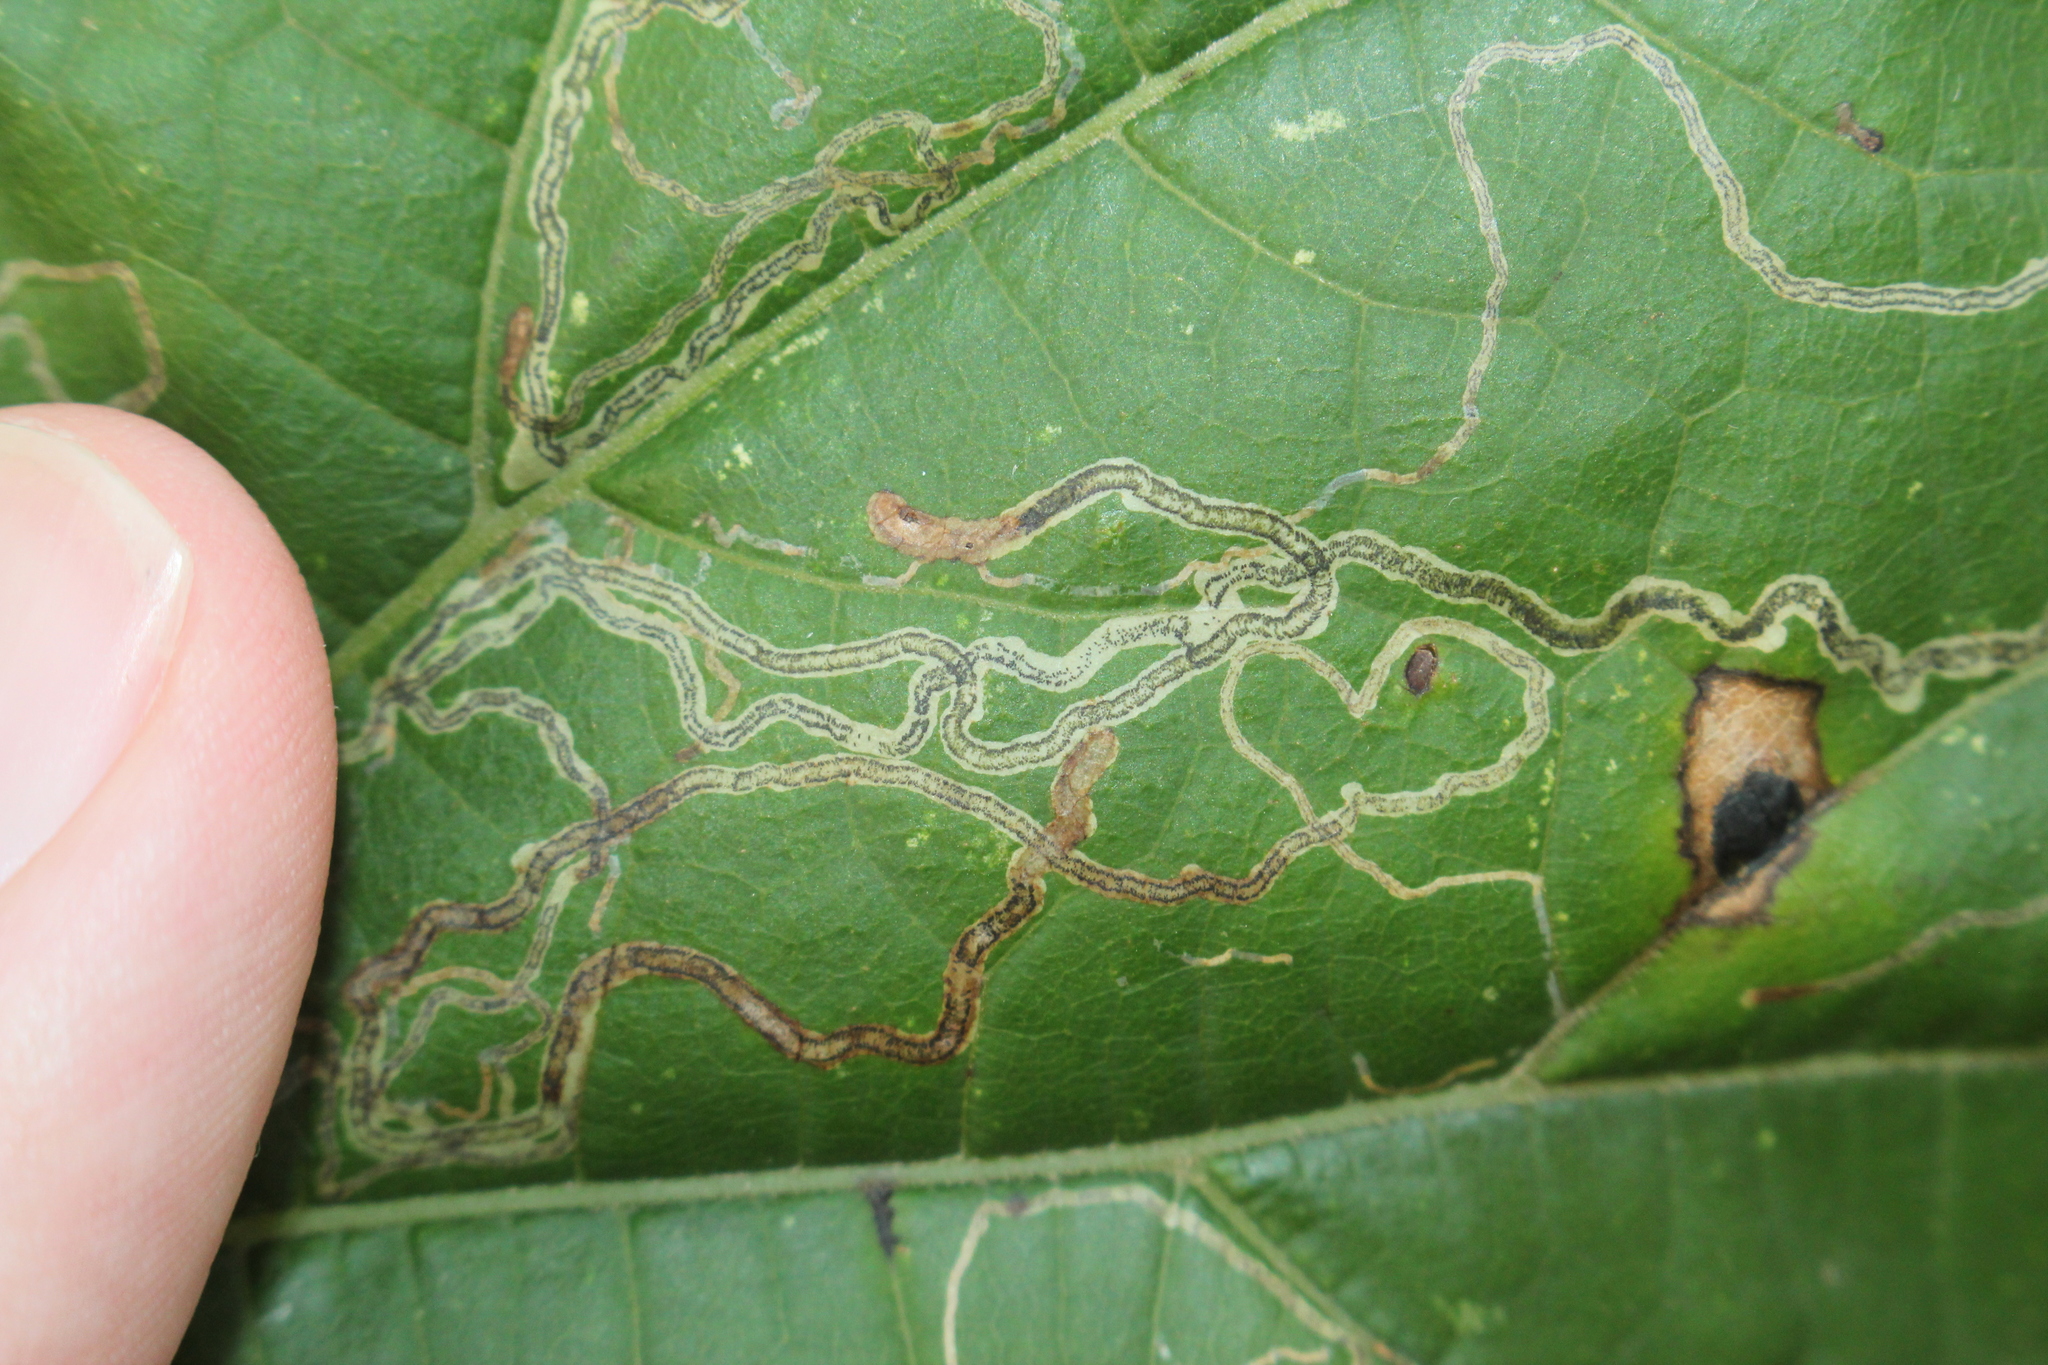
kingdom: Animalia
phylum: Arthropoda
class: Insecta
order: Lepidoptera
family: Gracillariidae
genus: Phyllocnistis
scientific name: Phyllocnistis vitifoliella
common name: Grape leaf-miner moth
